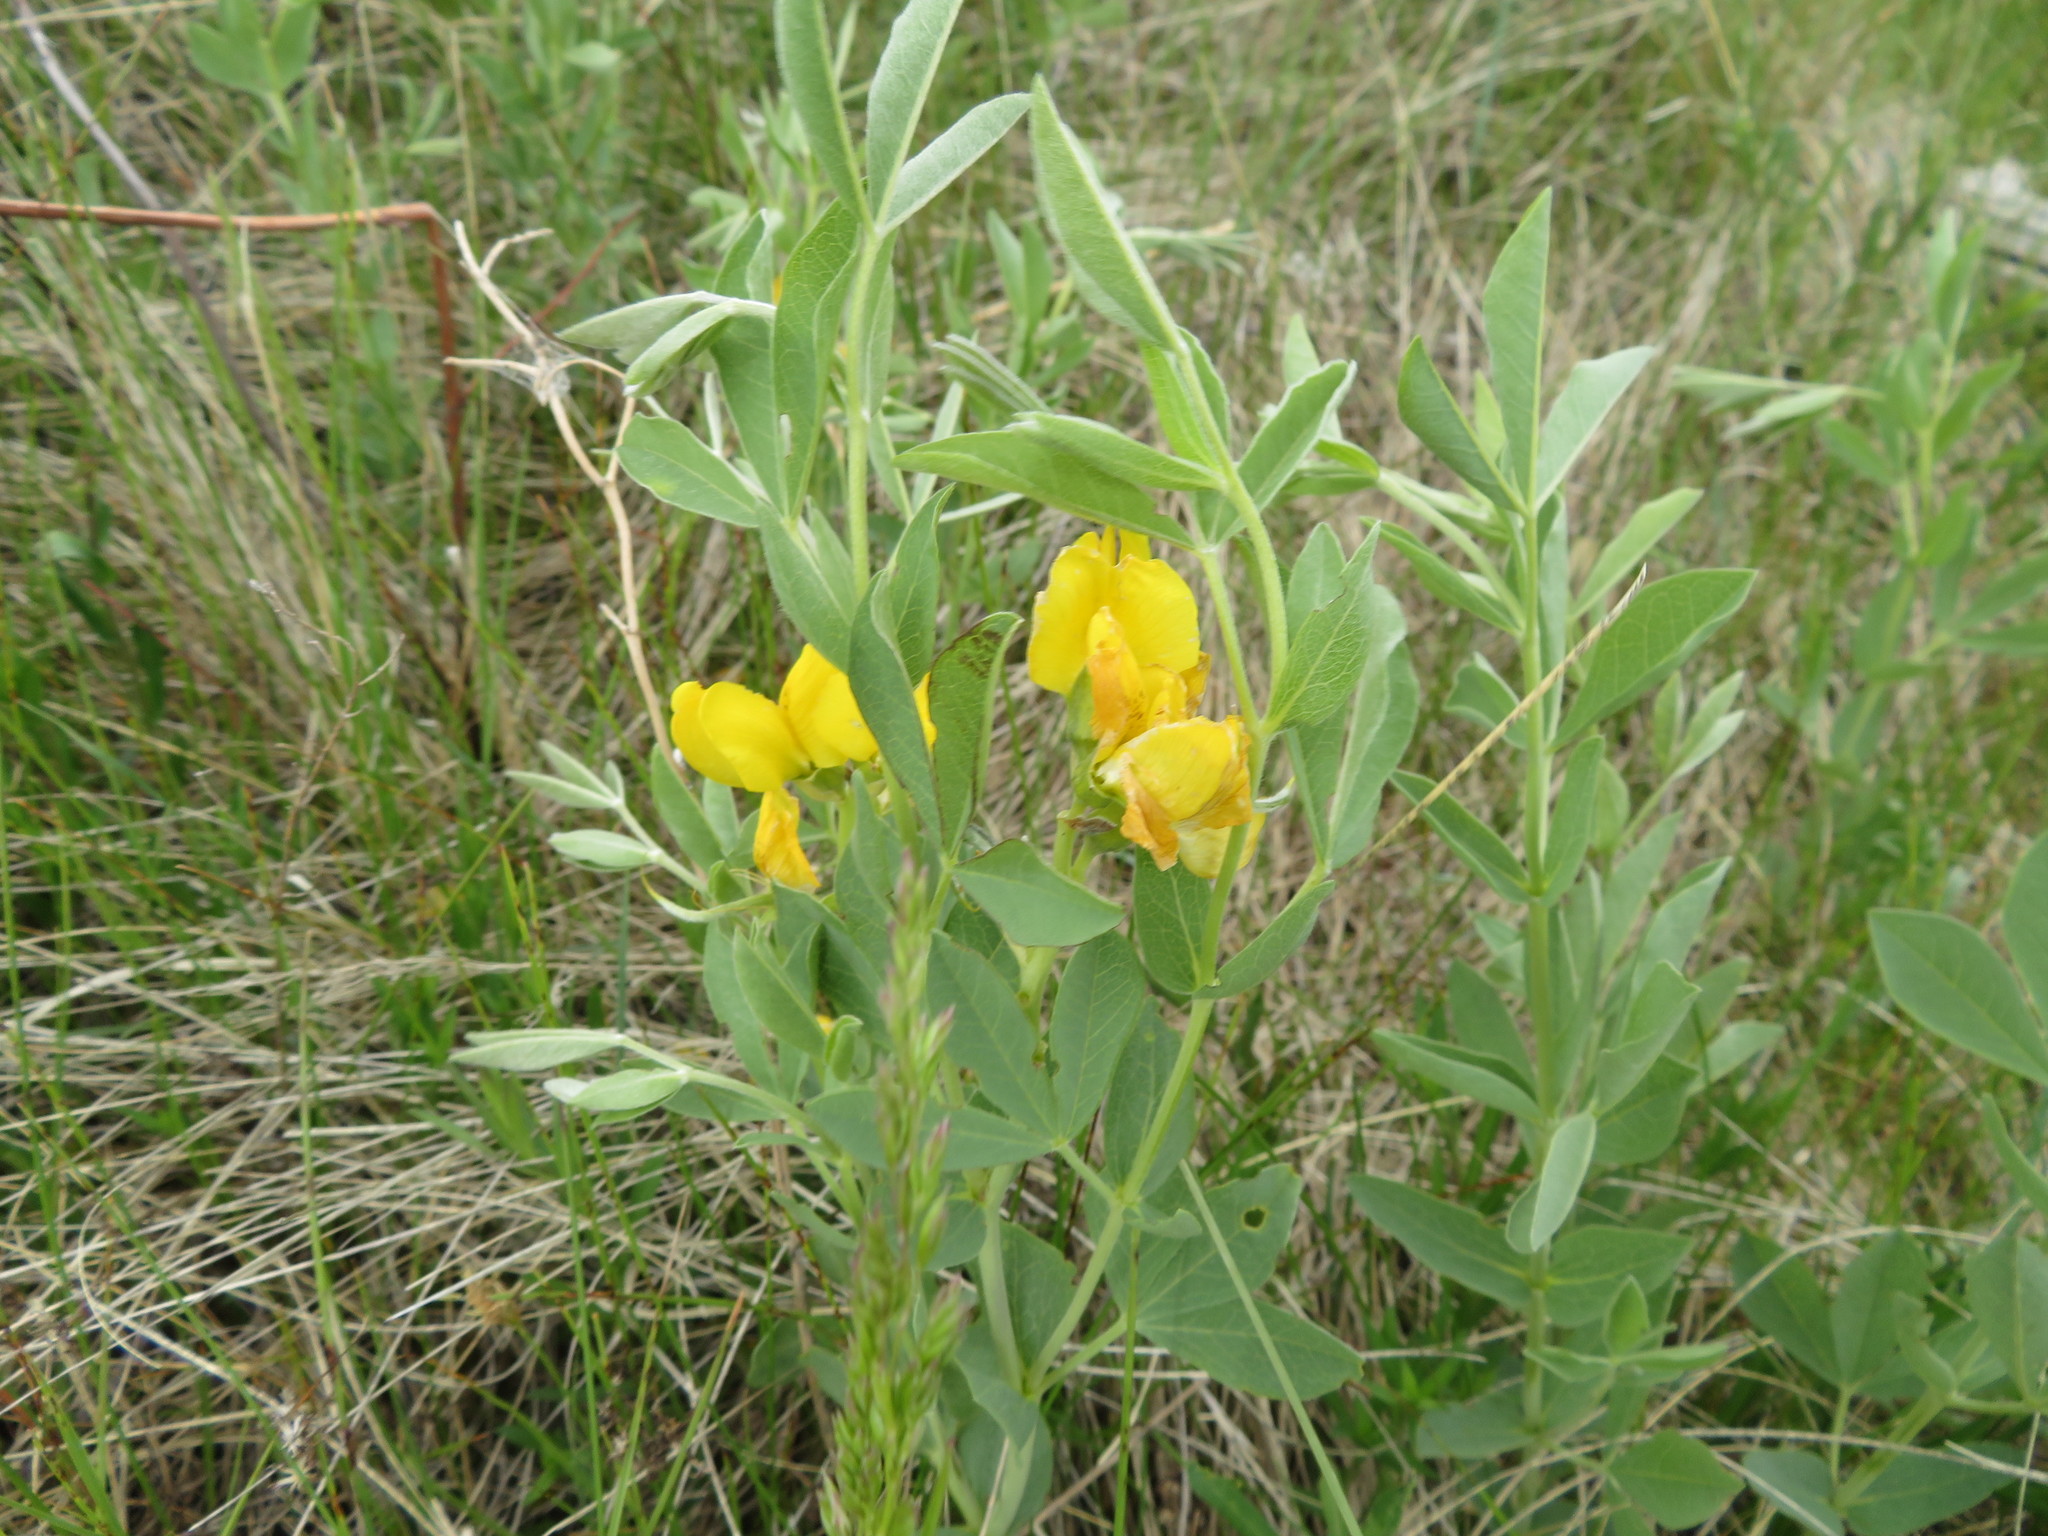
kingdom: Plantae
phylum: Tracheophyta
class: Magnoliopsida
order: Fabales
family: Fabaceae
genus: Thermopsis
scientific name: Thermopsis rhombifolia
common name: Circle-pod-pea
